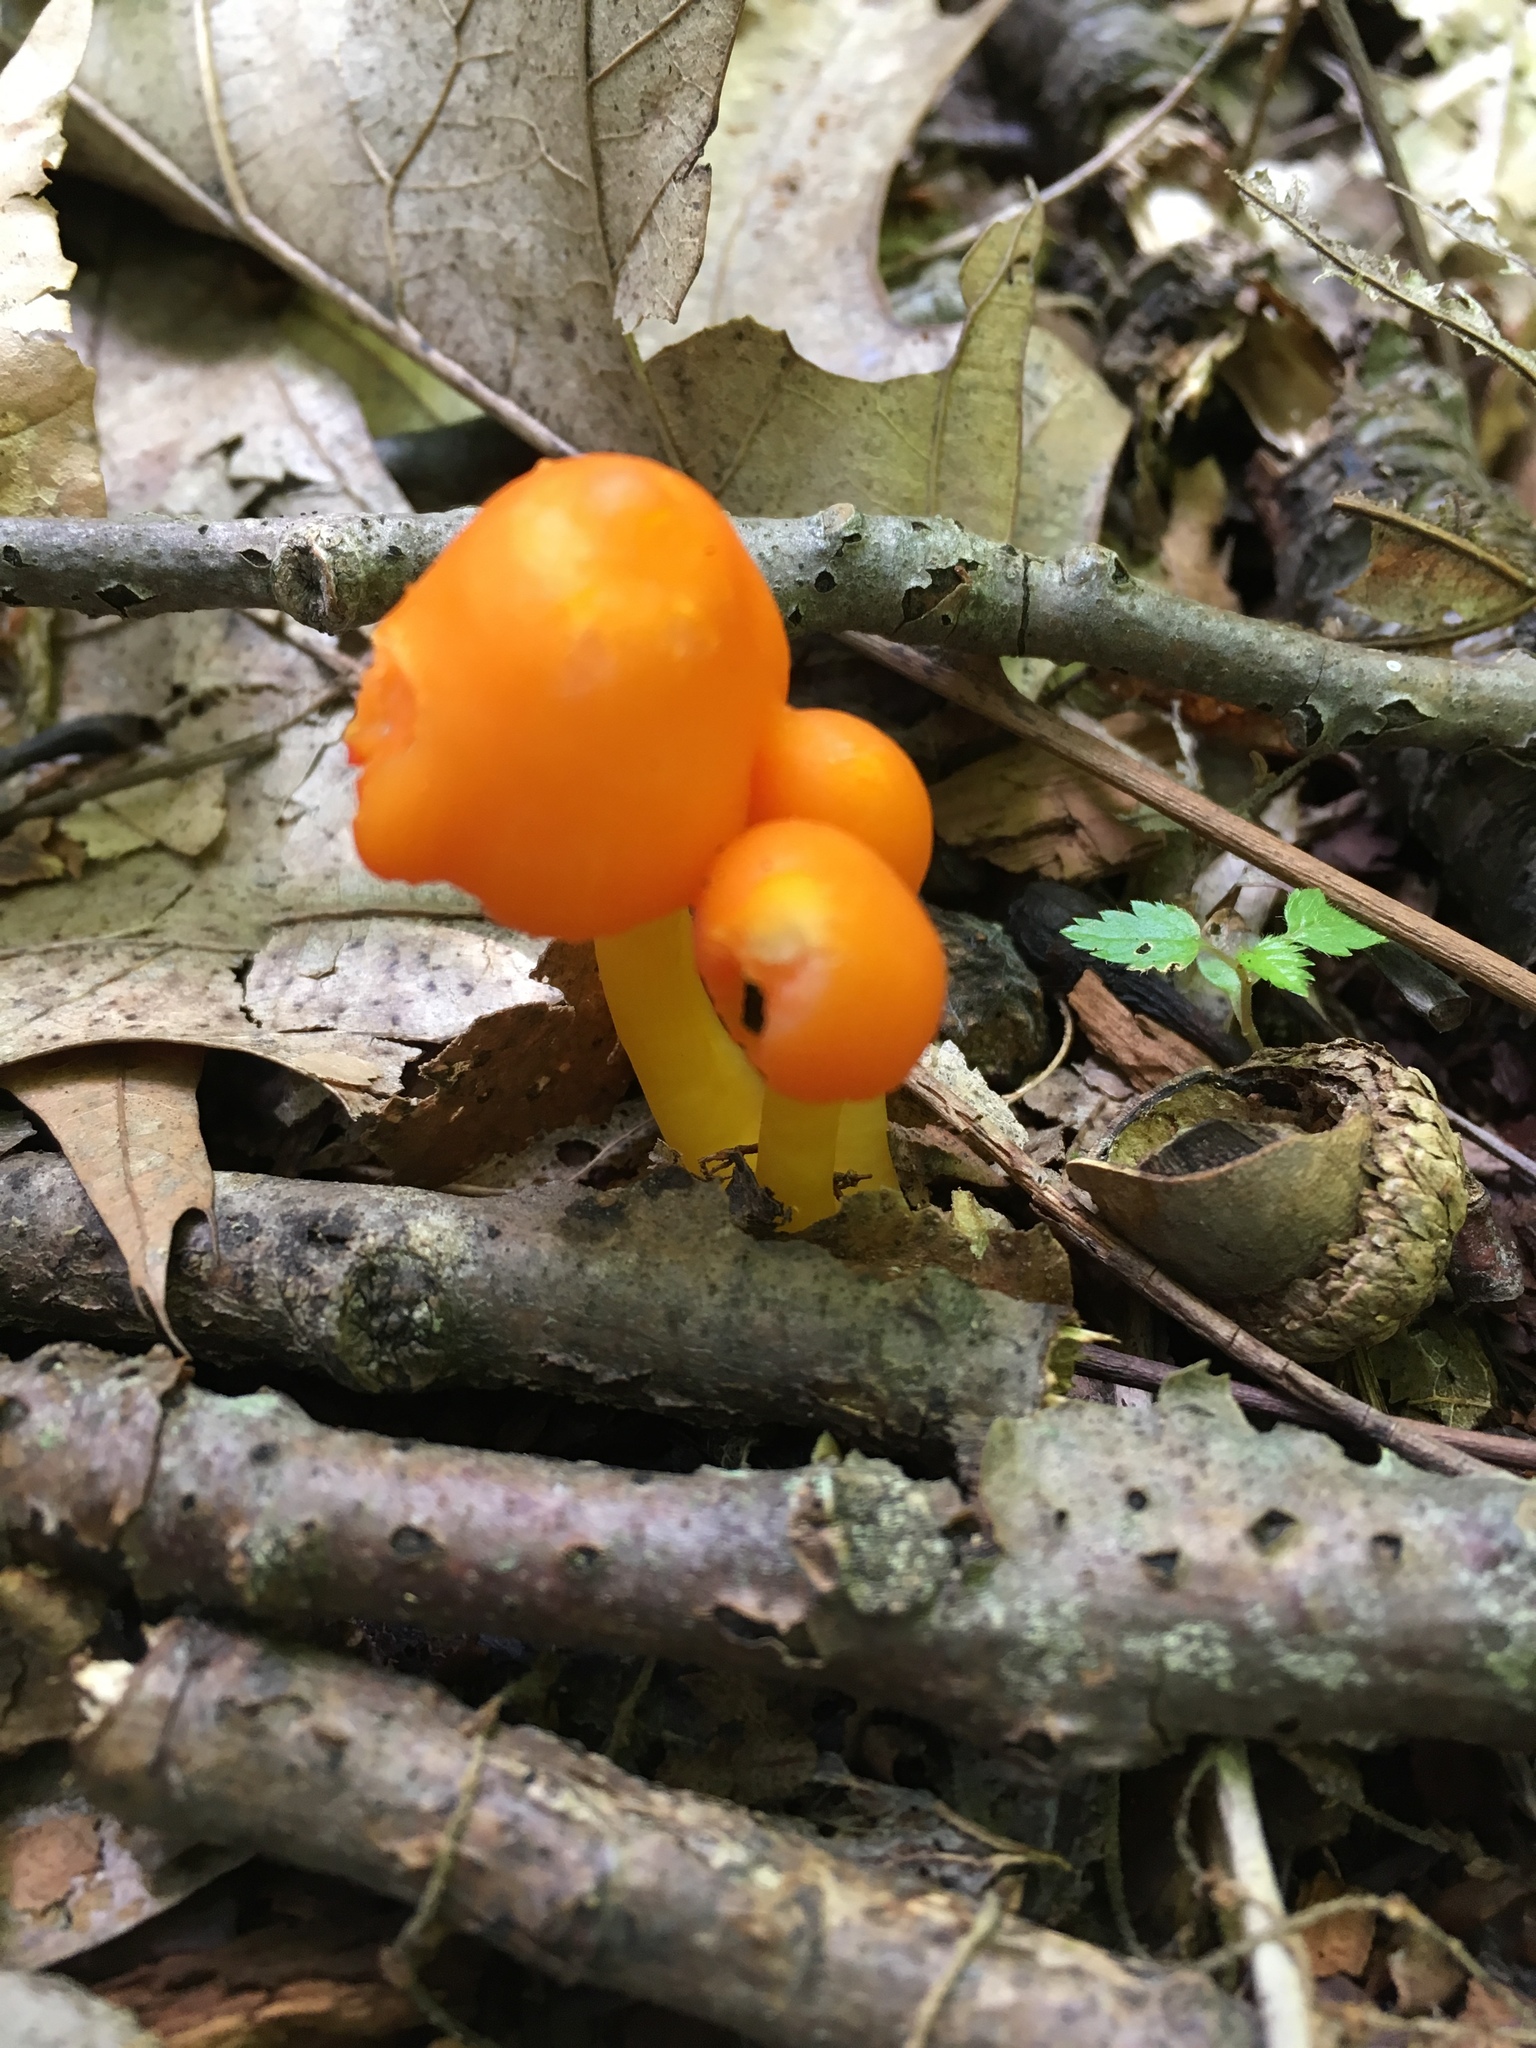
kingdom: Fungi
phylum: Basidiomycota
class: Agaricomycetes
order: Agaricales
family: Hygrophoraceae
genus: Humidicutis
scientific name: Humidicutis marginata
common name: Orange gilled waxcap
